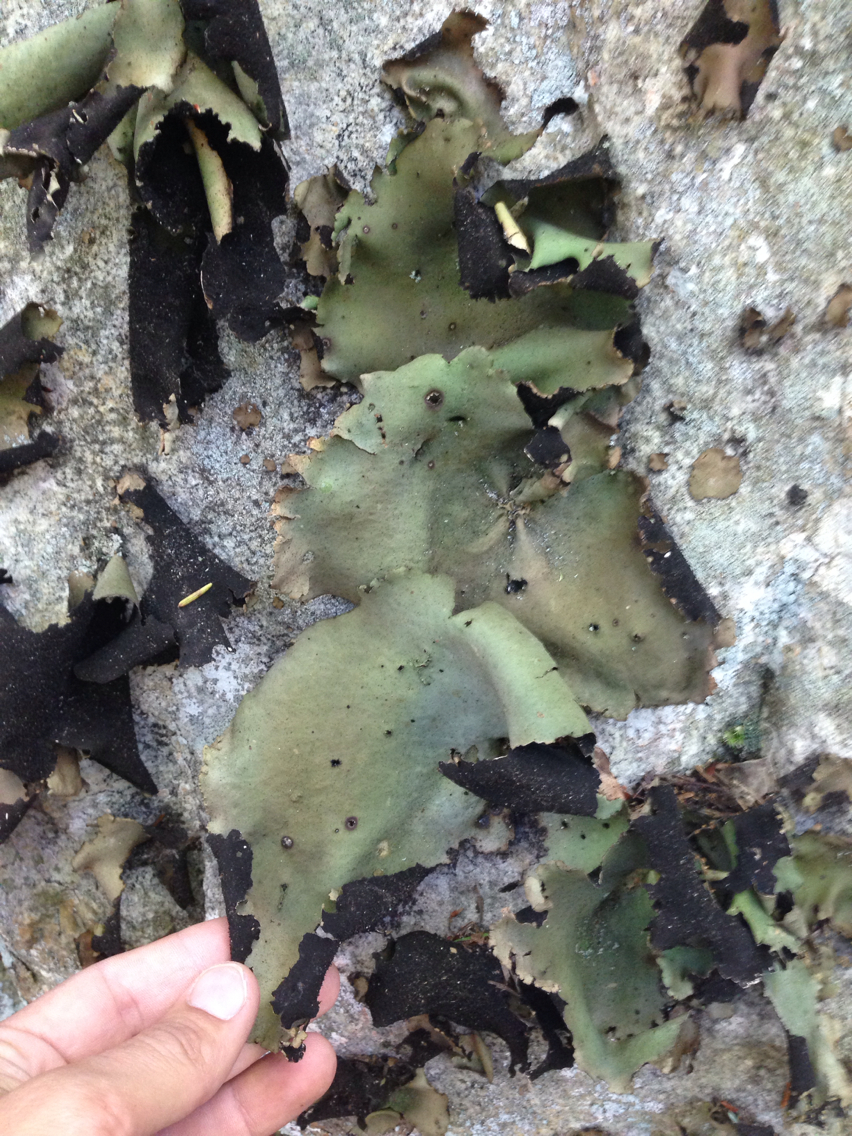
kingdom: Fungi
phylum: Ascomycota
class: Lecanoromycetes
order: Umbilicariales
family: Umbilicariaceae
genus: Umbilicaria
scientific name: Umbilicaria mammulata
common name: Smooth rock tripe
